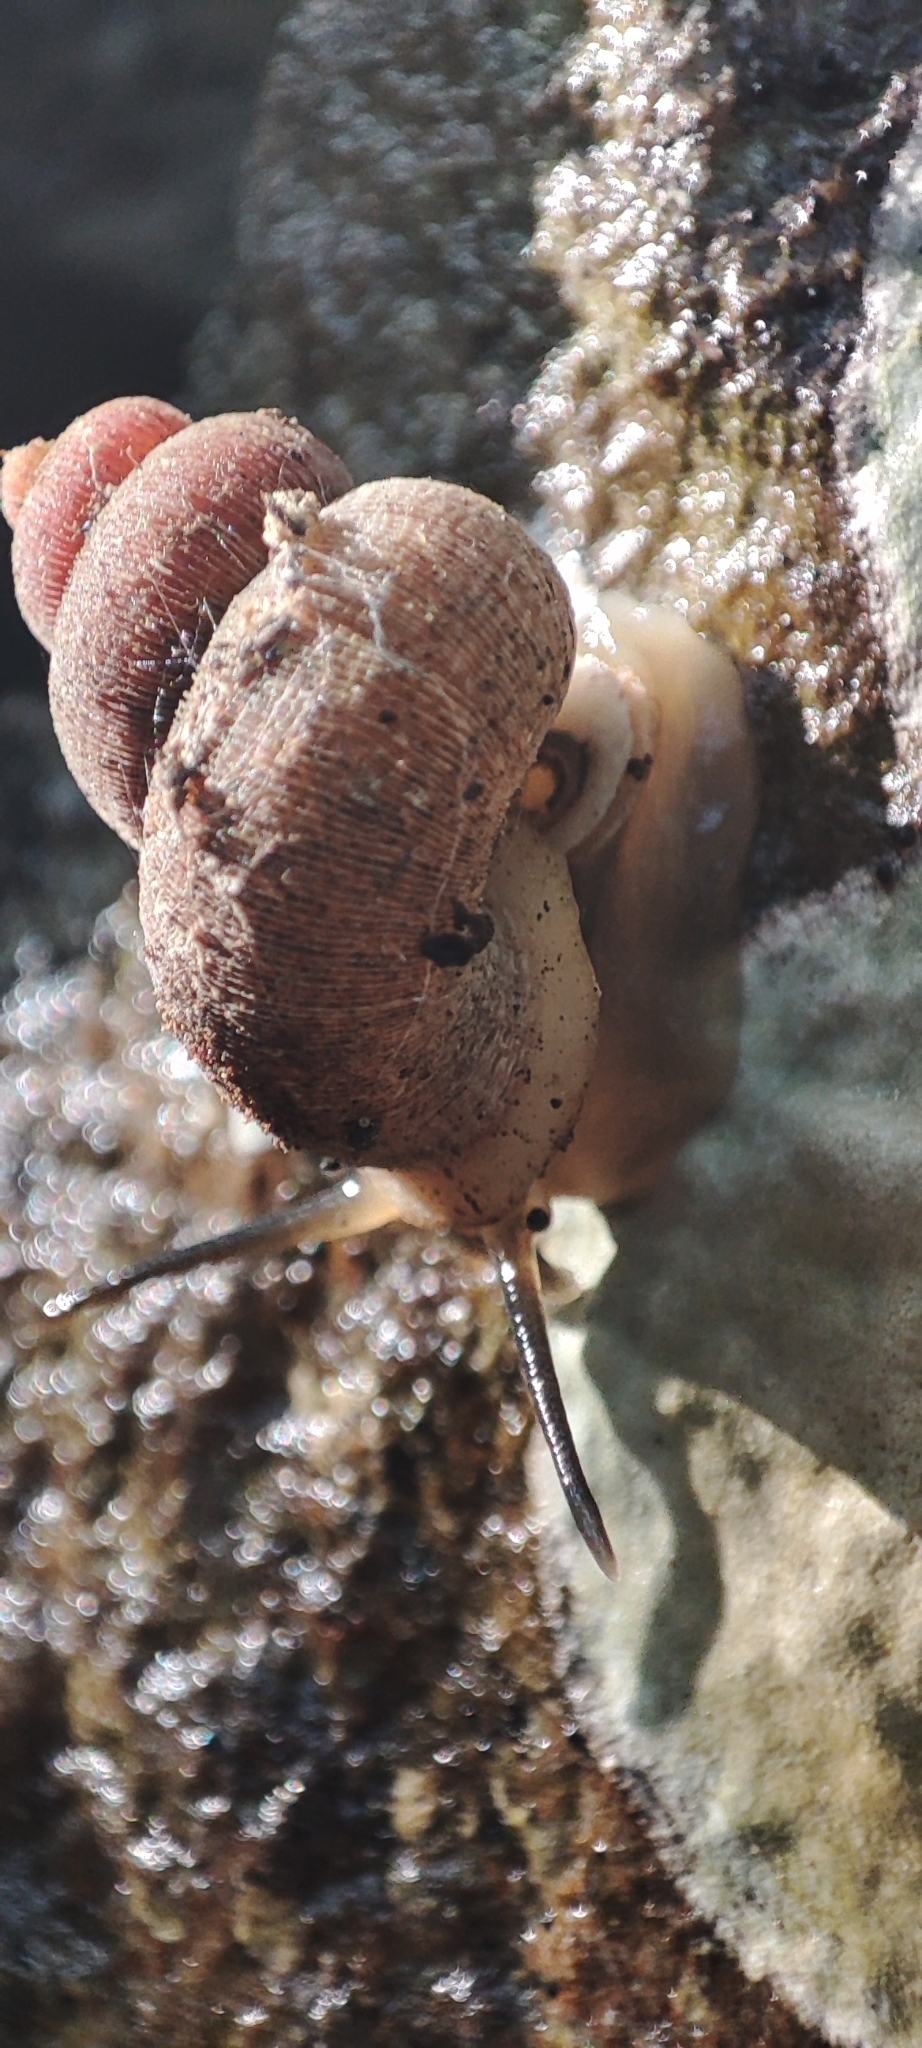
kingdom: Animalia
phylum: Mollusca
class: Gastropoda
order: Littorinimorpha
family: Annulariidae
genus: Tudorisca
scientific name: Tudorisca rosenbergiana
